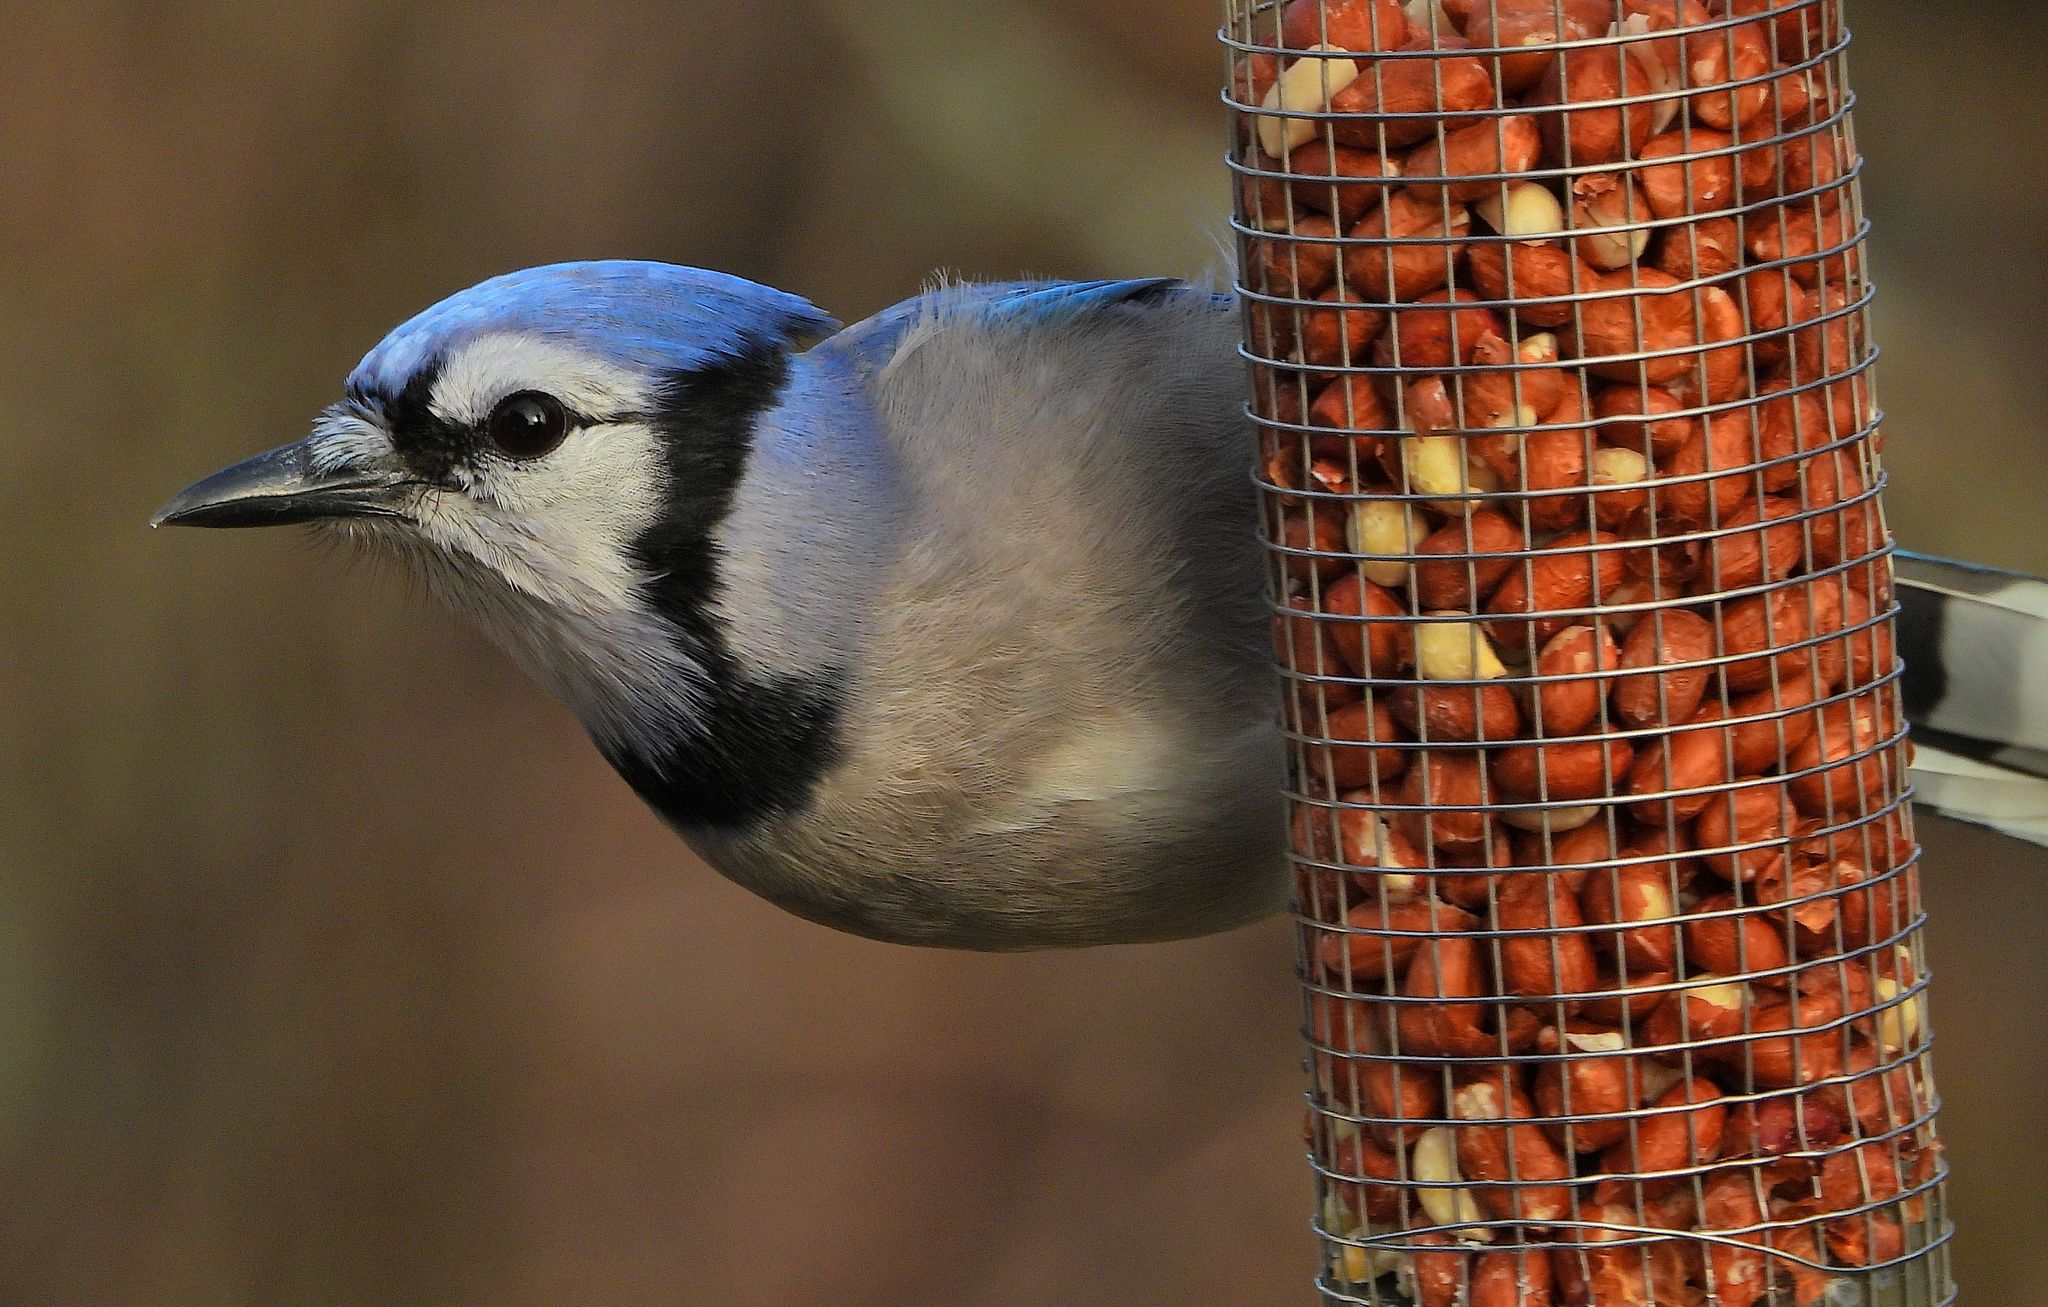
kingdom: Animalia
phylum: Chordata
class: Aves
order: Passeriformes
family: Corvidae
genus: Cyanocitta
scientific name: Cyanocitta cristata
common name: Blue jay
